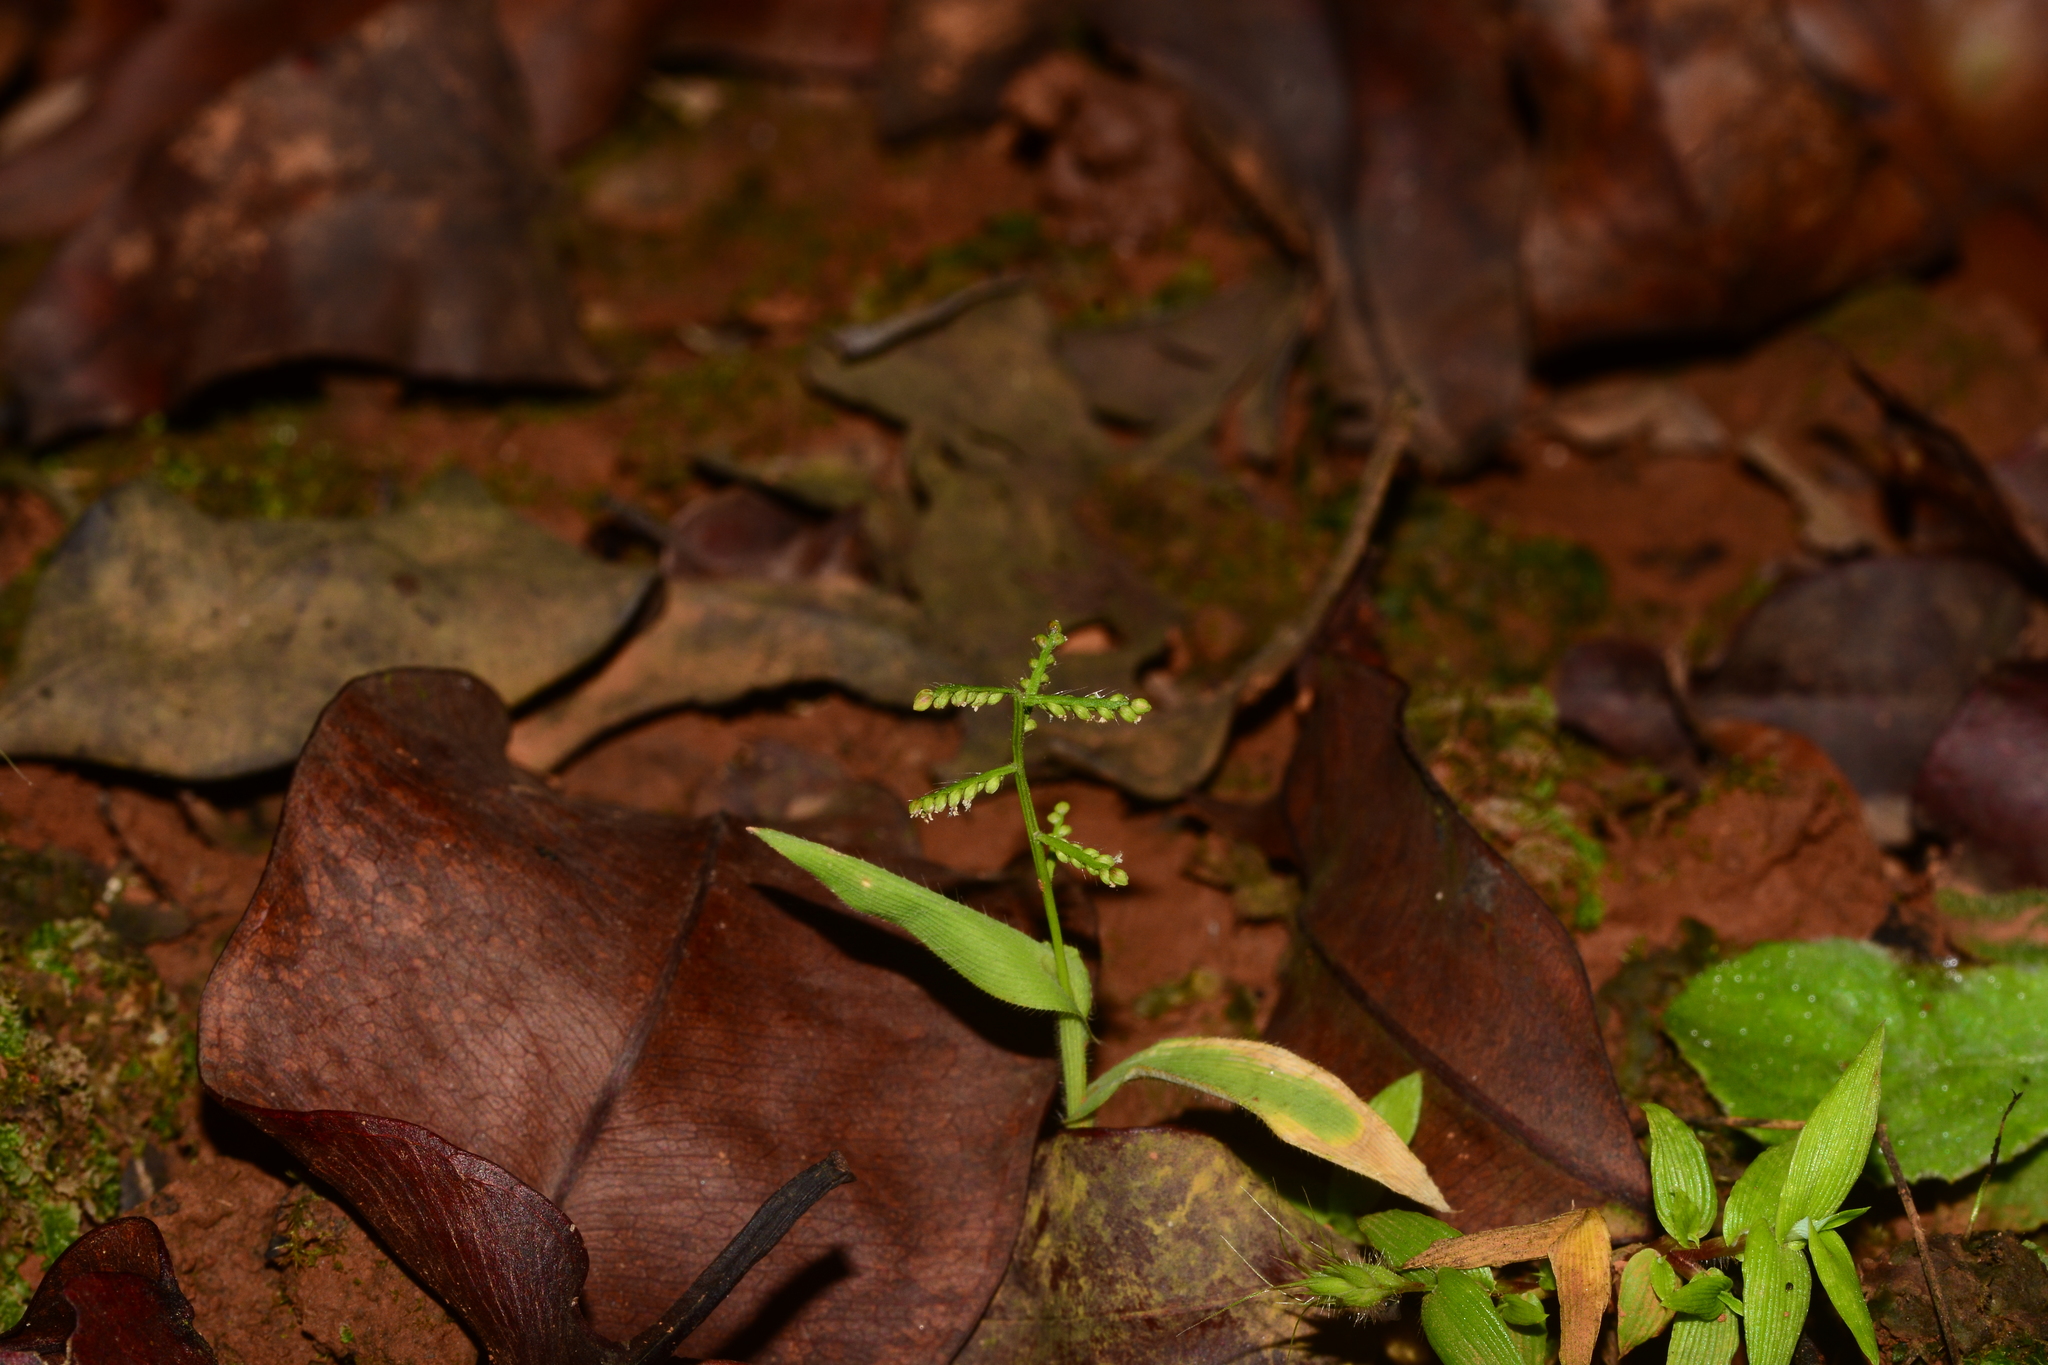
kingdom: Plantae
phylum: Tracheophyta
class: Liliopsida
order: Poales
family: Poaceae
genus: Paspalum
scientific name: Paspalum canarae
